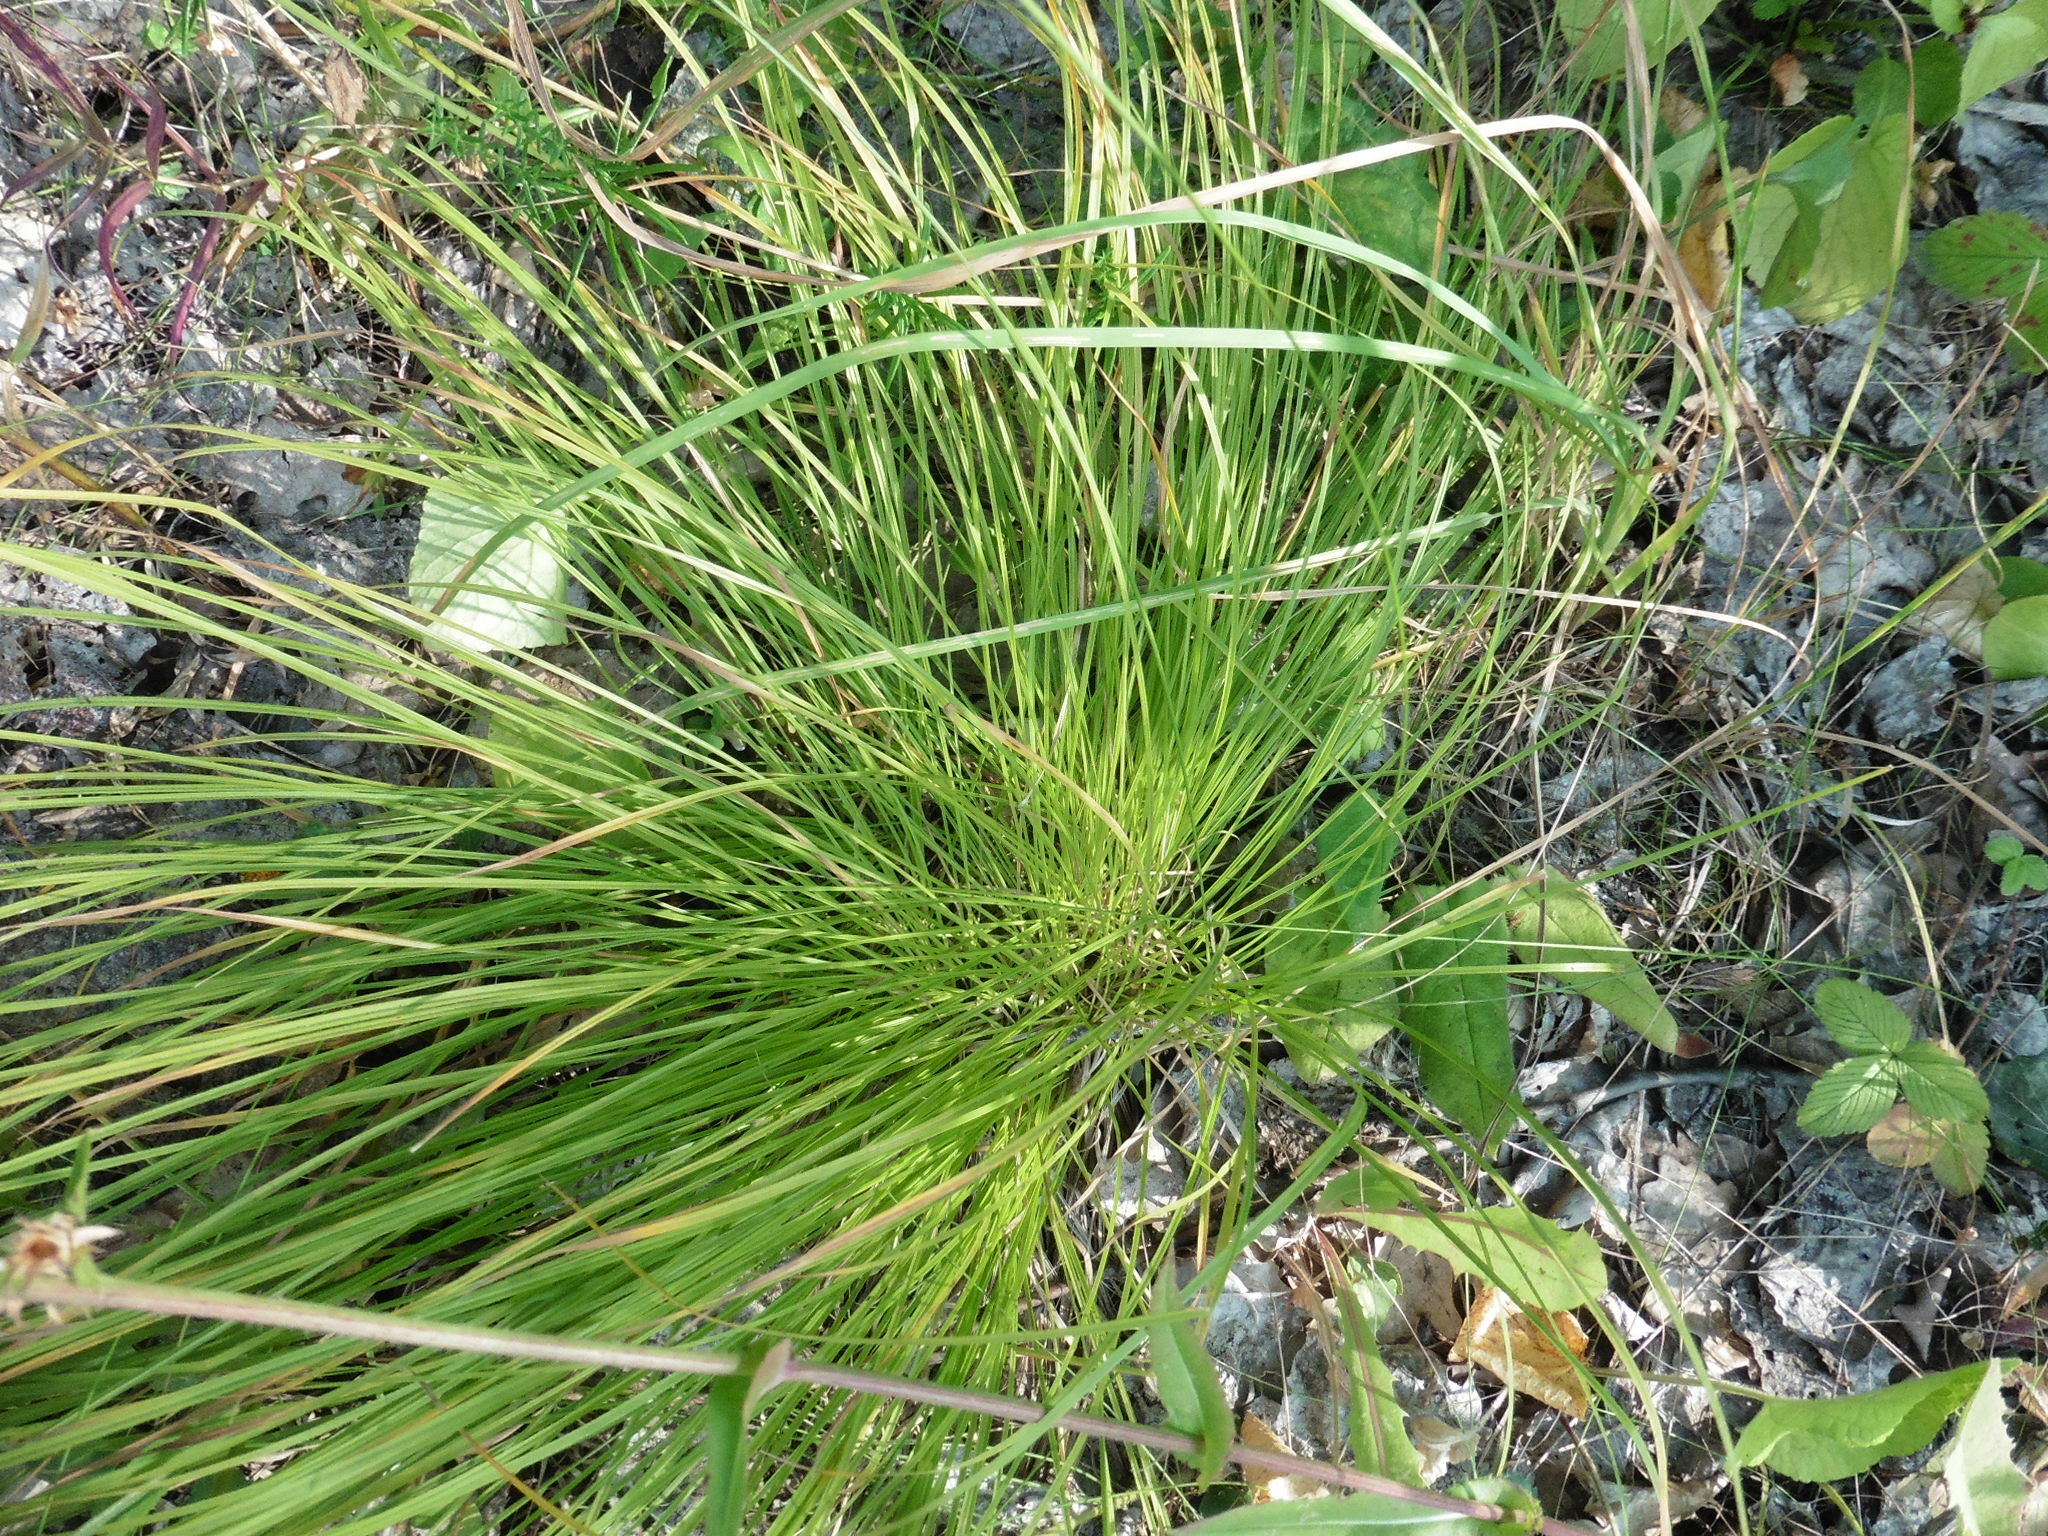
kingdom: Plantae
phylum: Tracheophyta
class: Liliopsida
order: Poales
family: Cyperaceae
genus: Carex
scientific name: Carex montana
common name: Soft-leaved sedge
